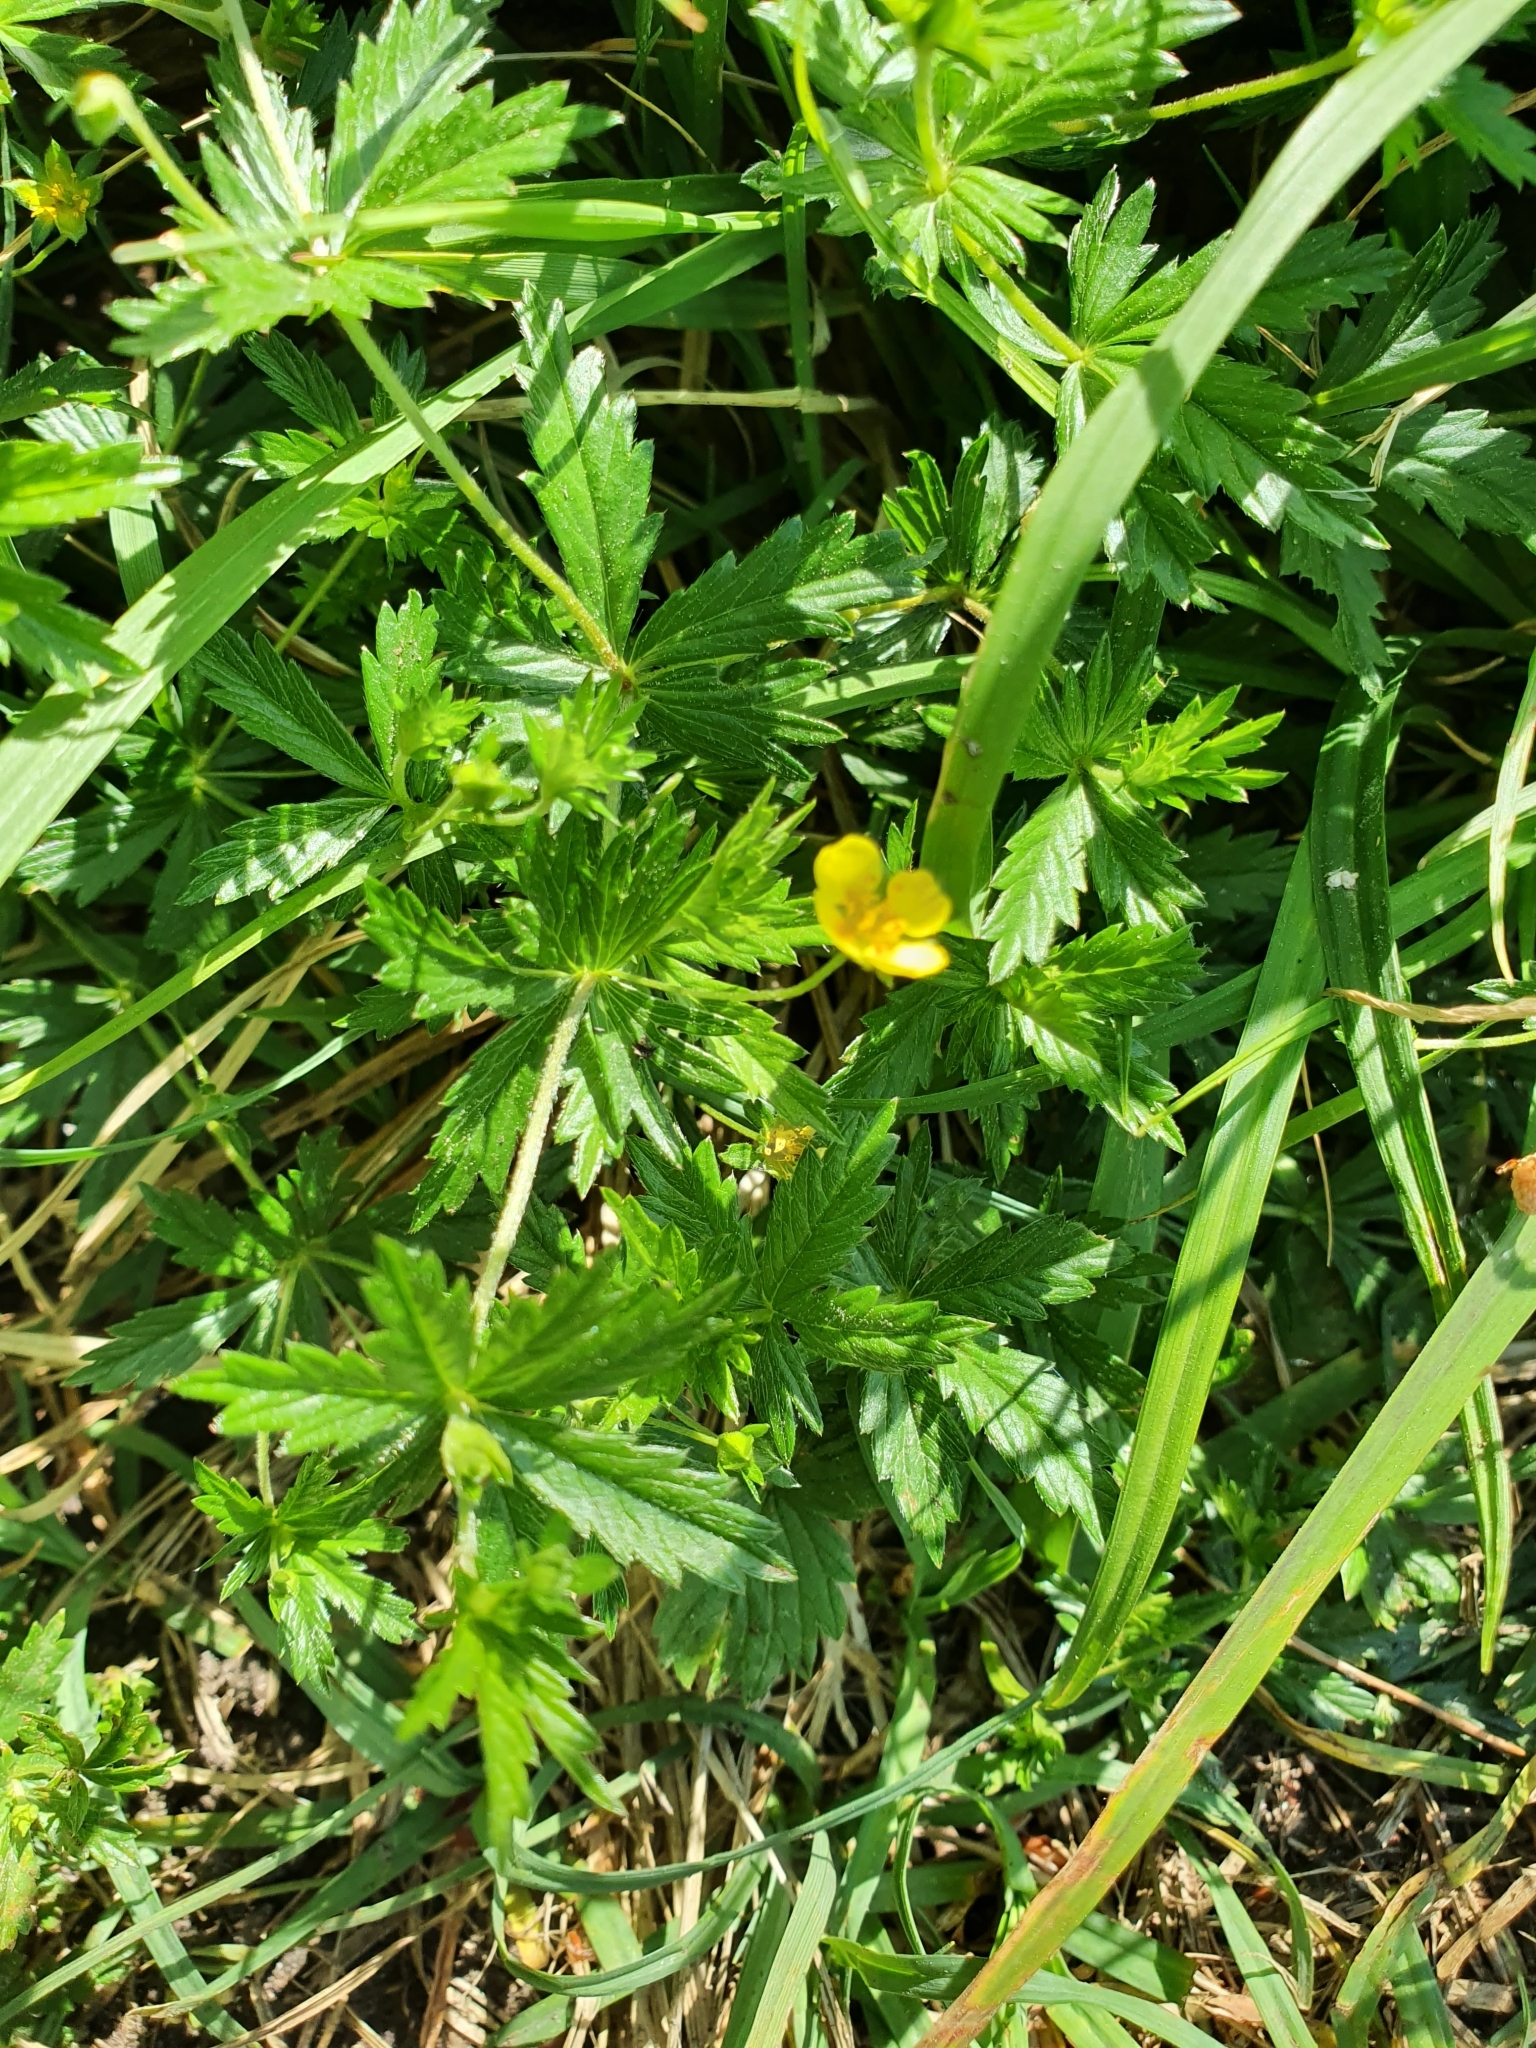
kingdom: Plantae
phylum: Tracheophyta
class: Magnoliopsida
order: Rosales
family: Rosaceae
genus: Potentilla
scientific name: Potentilla erecta
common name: Tormentil
